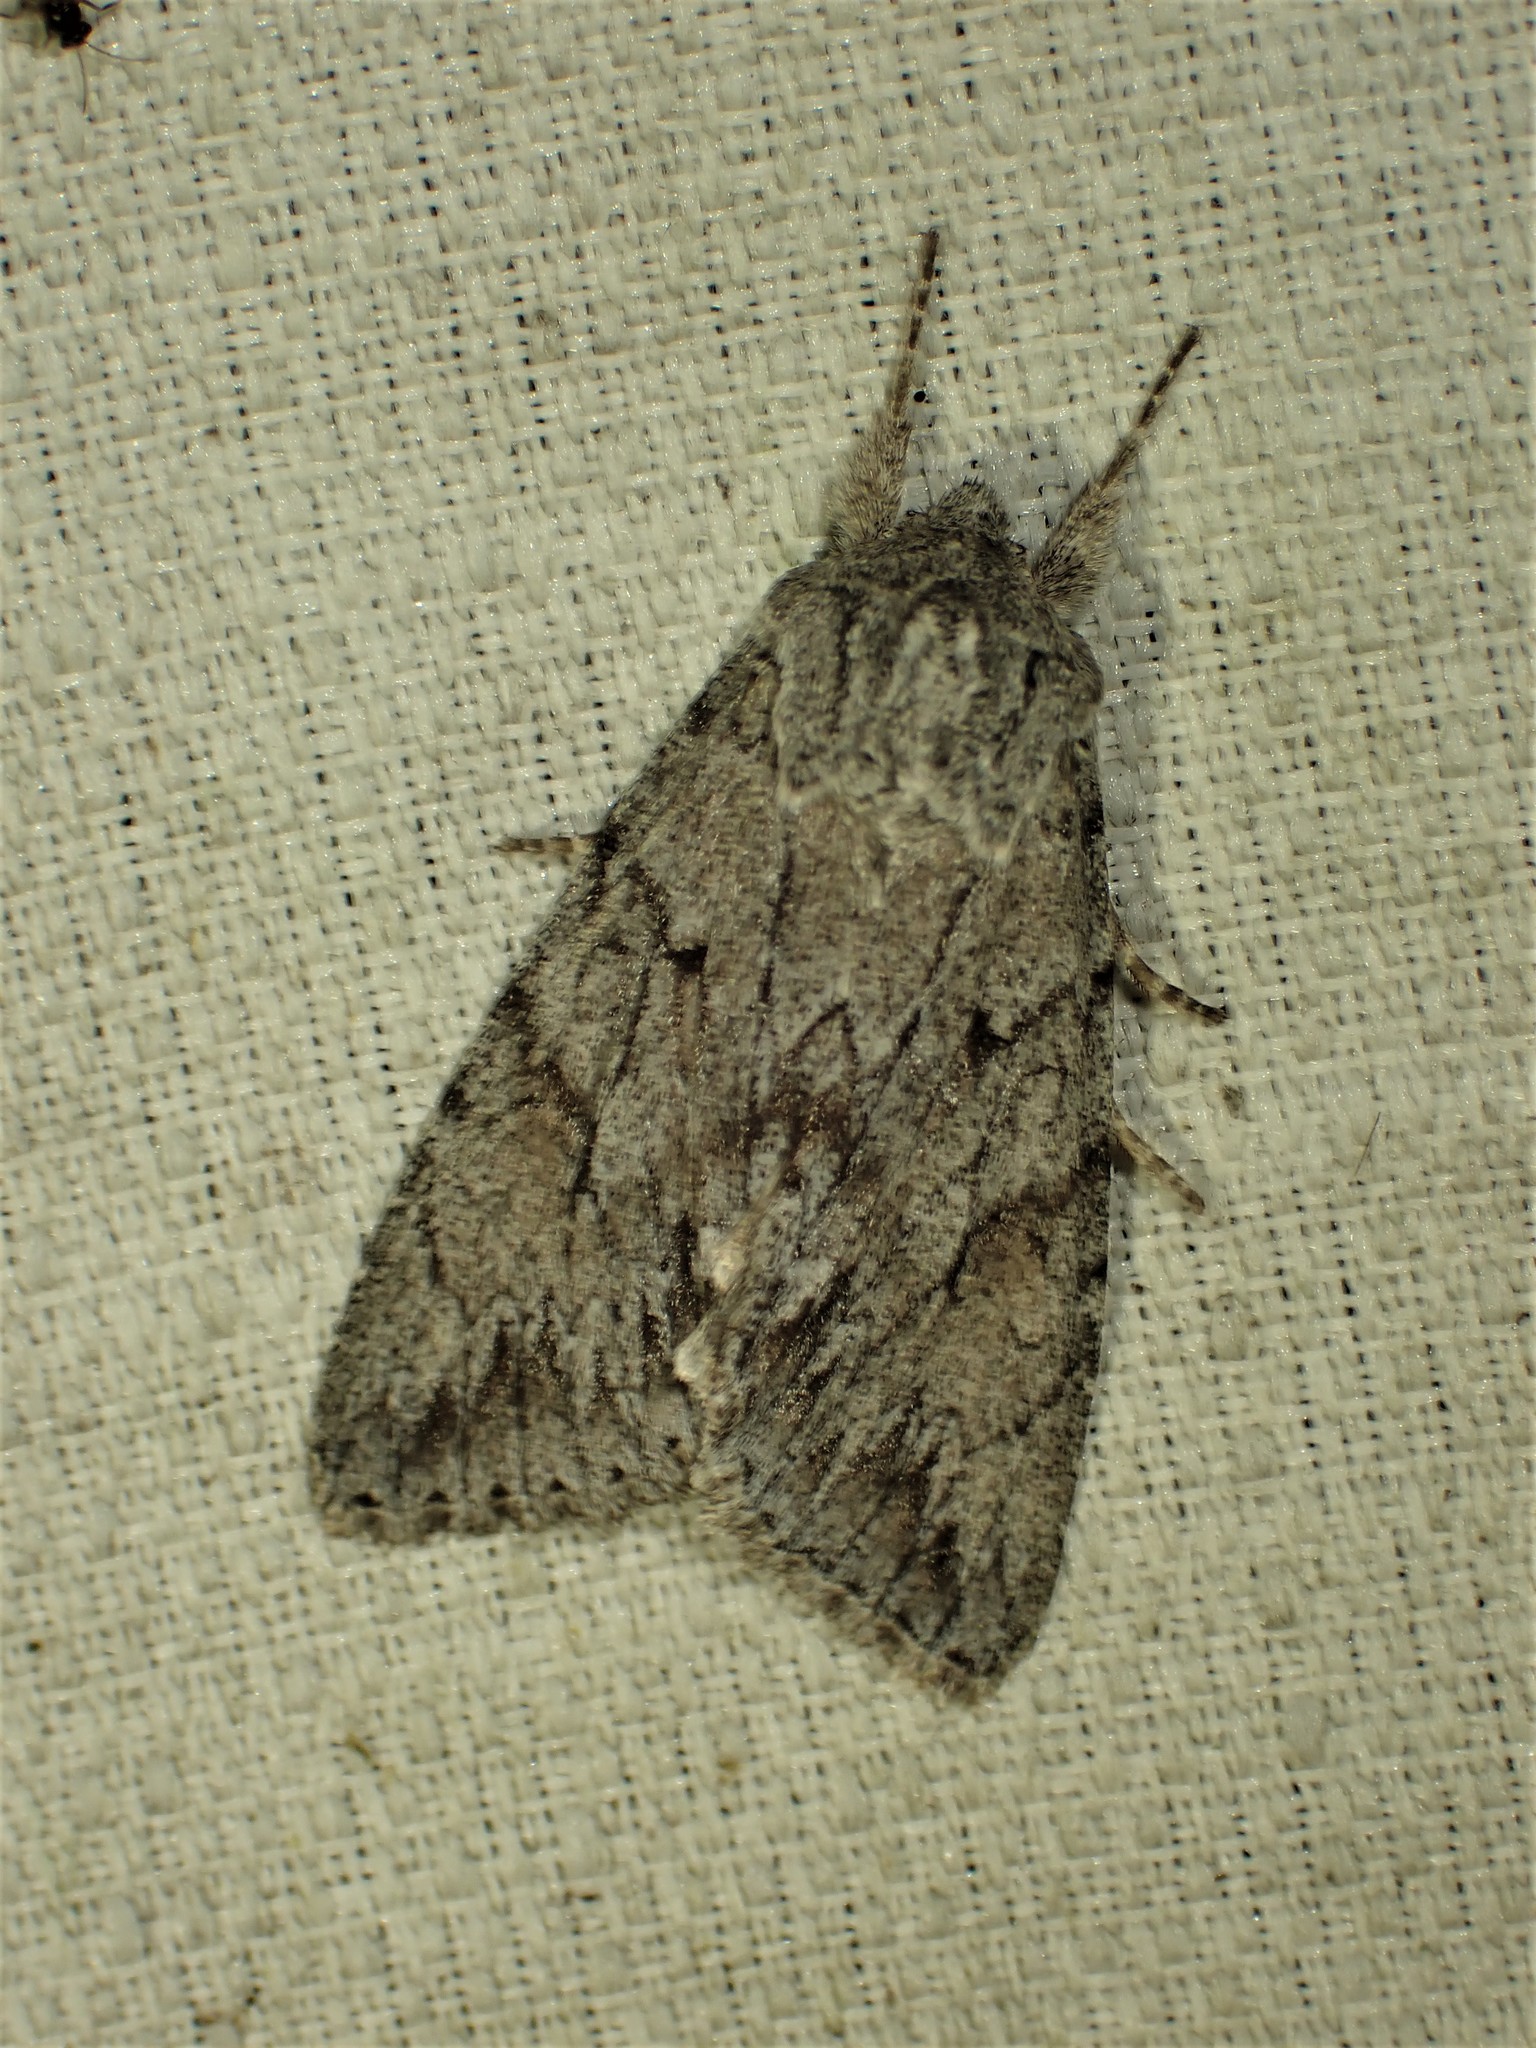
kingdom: Animalia
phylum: Arthropoda
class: Insecta
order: Lepidoptera
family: Noctuidae
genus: Andropolia
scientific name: Andropolia contacta
